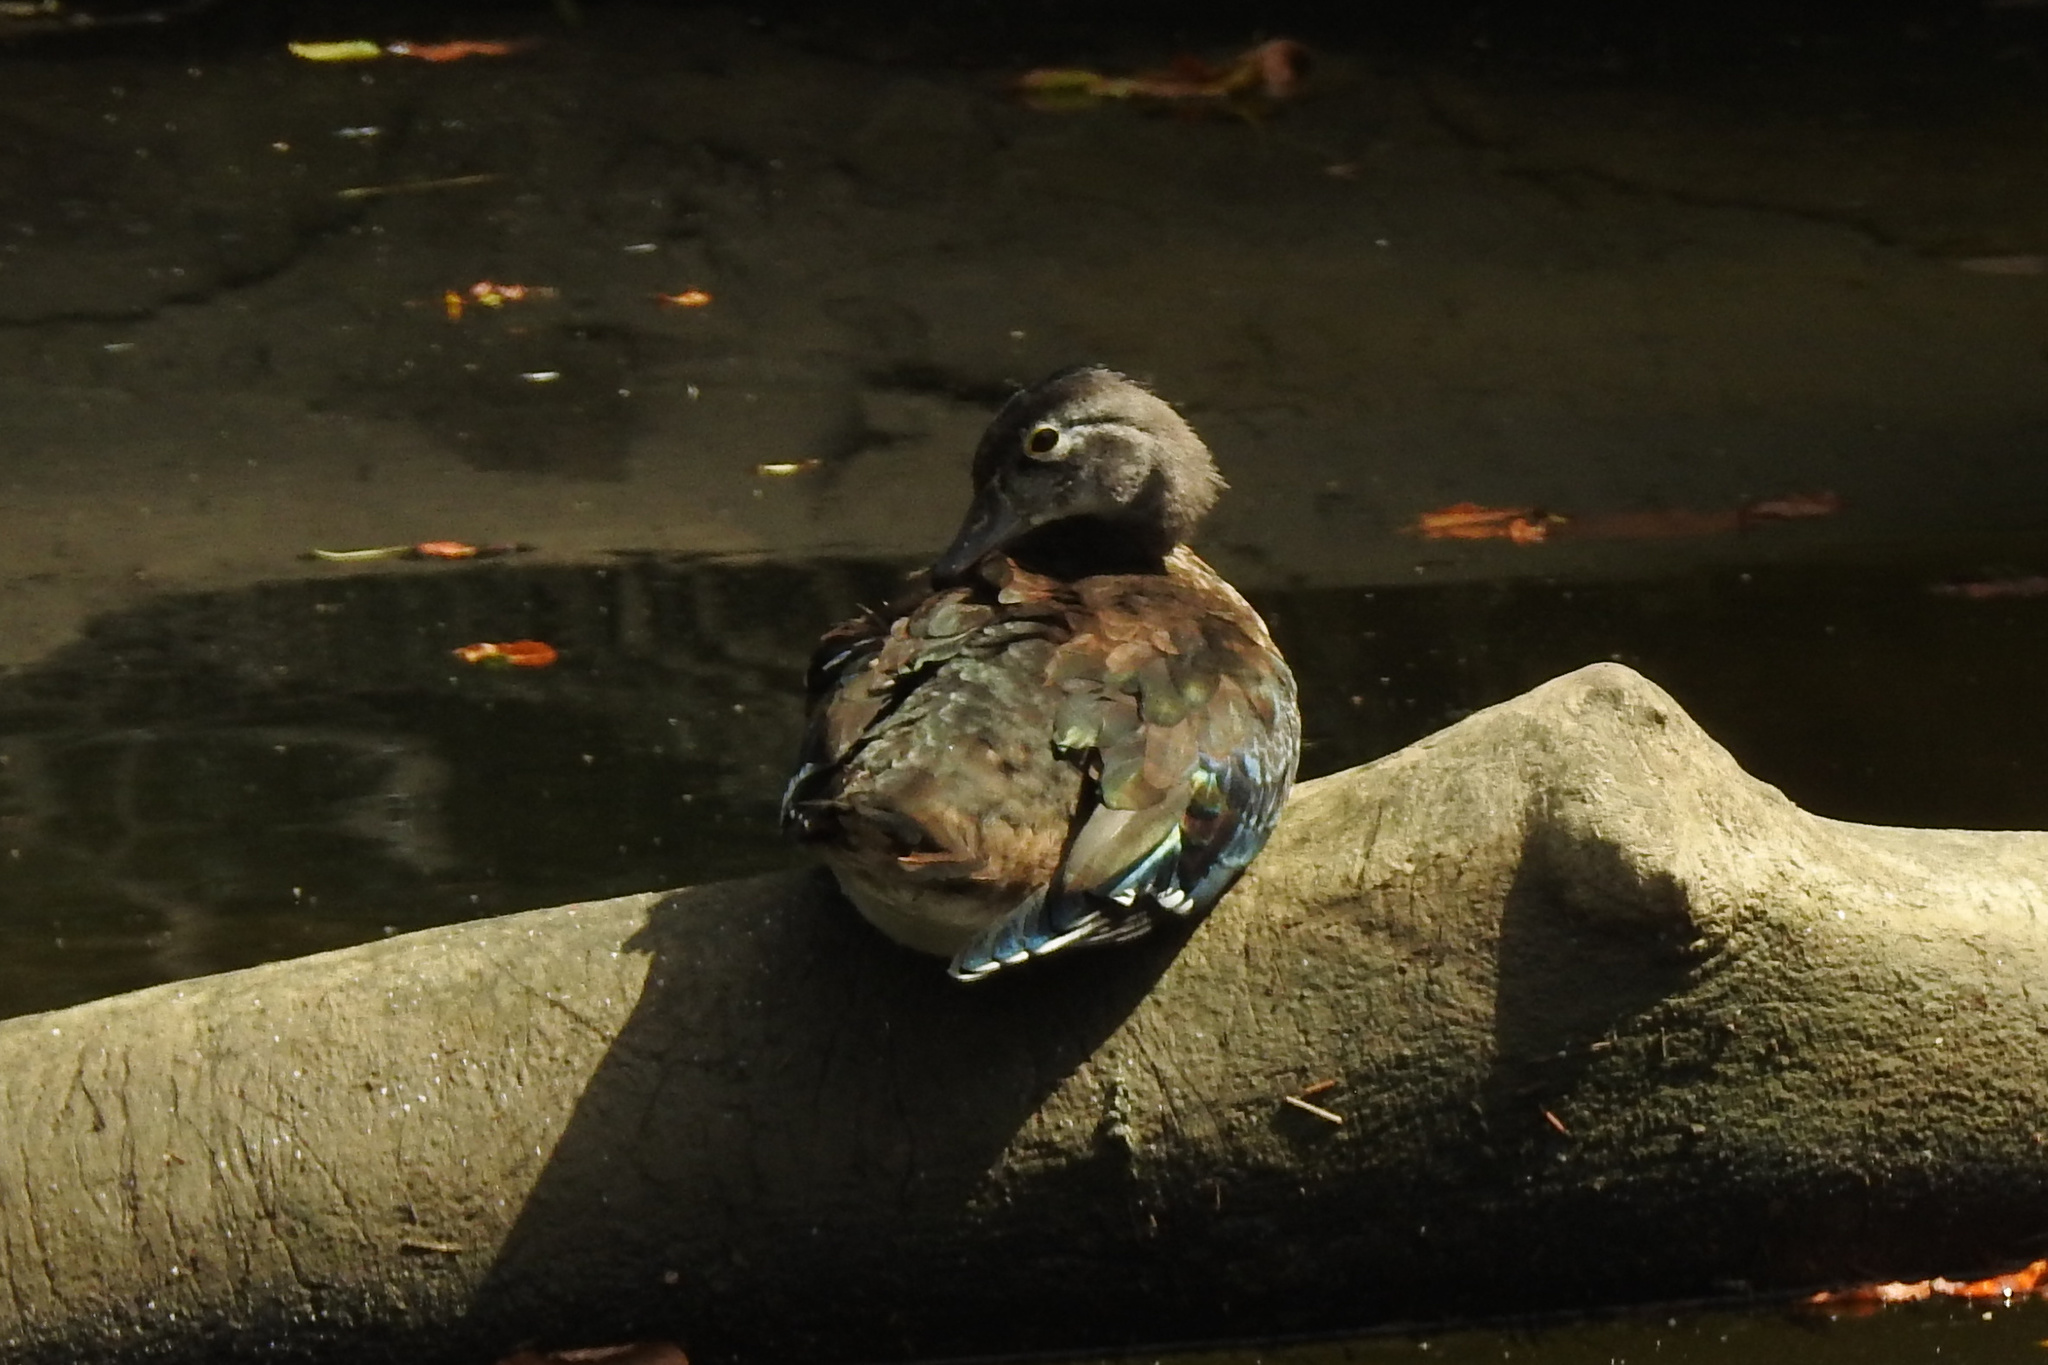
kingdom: Animalia
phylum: Chordata
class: Aves
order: Anseriformes
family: Anatidae
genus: Aix
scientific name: Aix sponsa
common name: Wood duck
